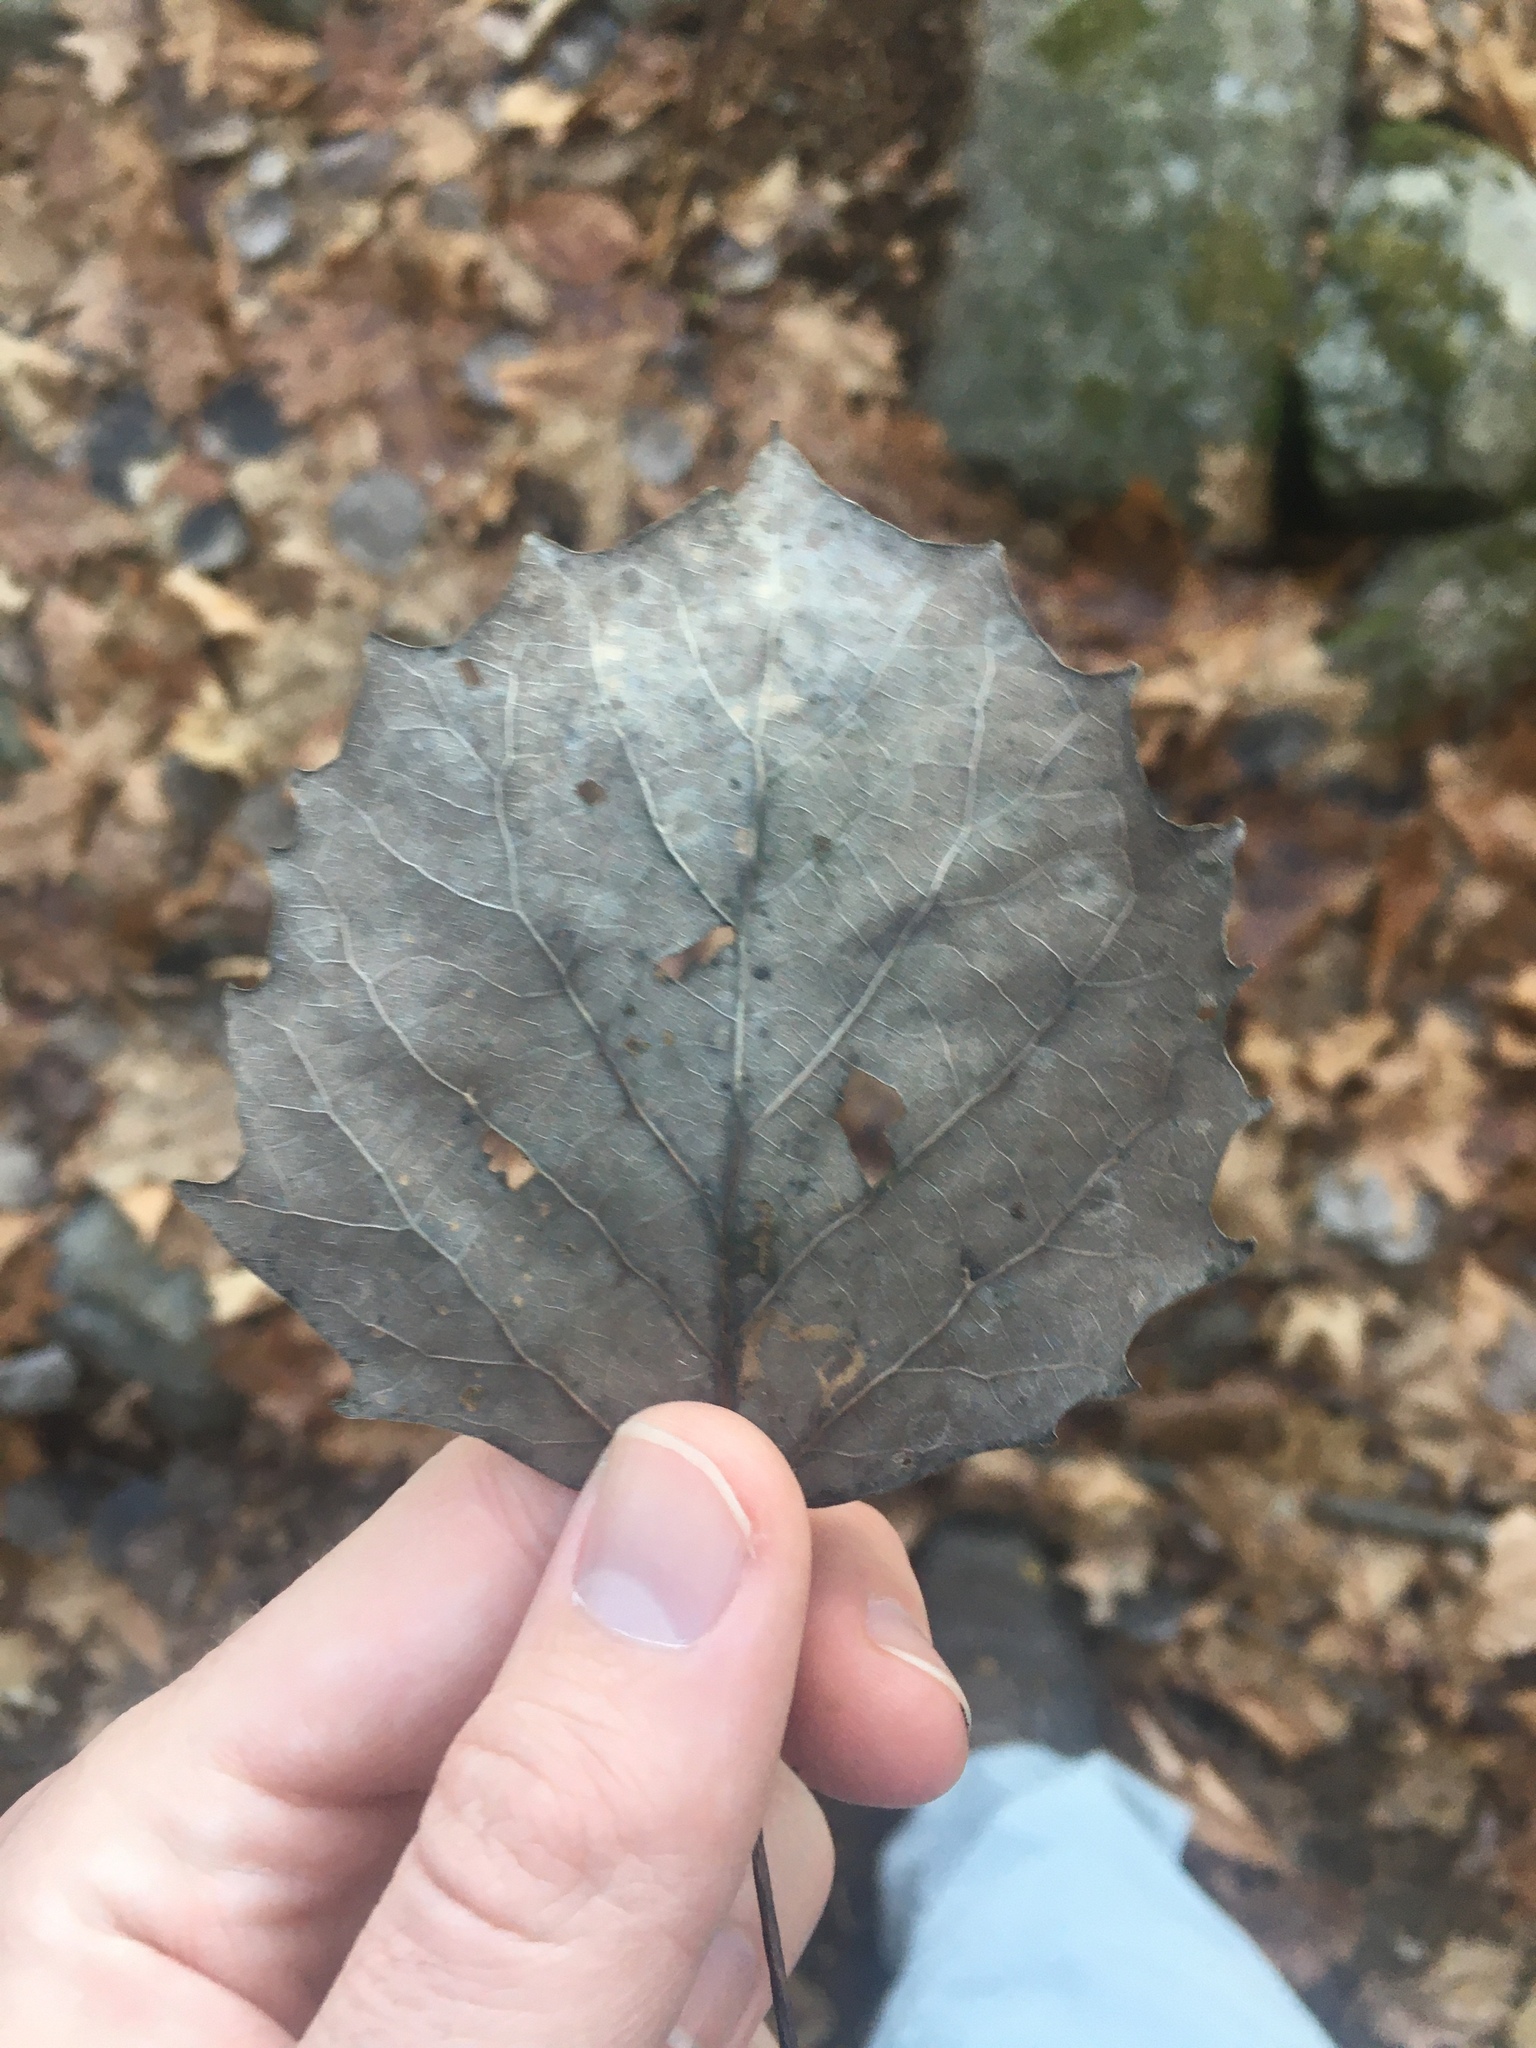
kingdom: Plantae
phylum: Tracheophyta
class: Magnoliopsida
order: Malpighiales
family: Salicaceae
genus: Populus
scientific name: Populus grandidentata
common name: Bigtooth aspen
